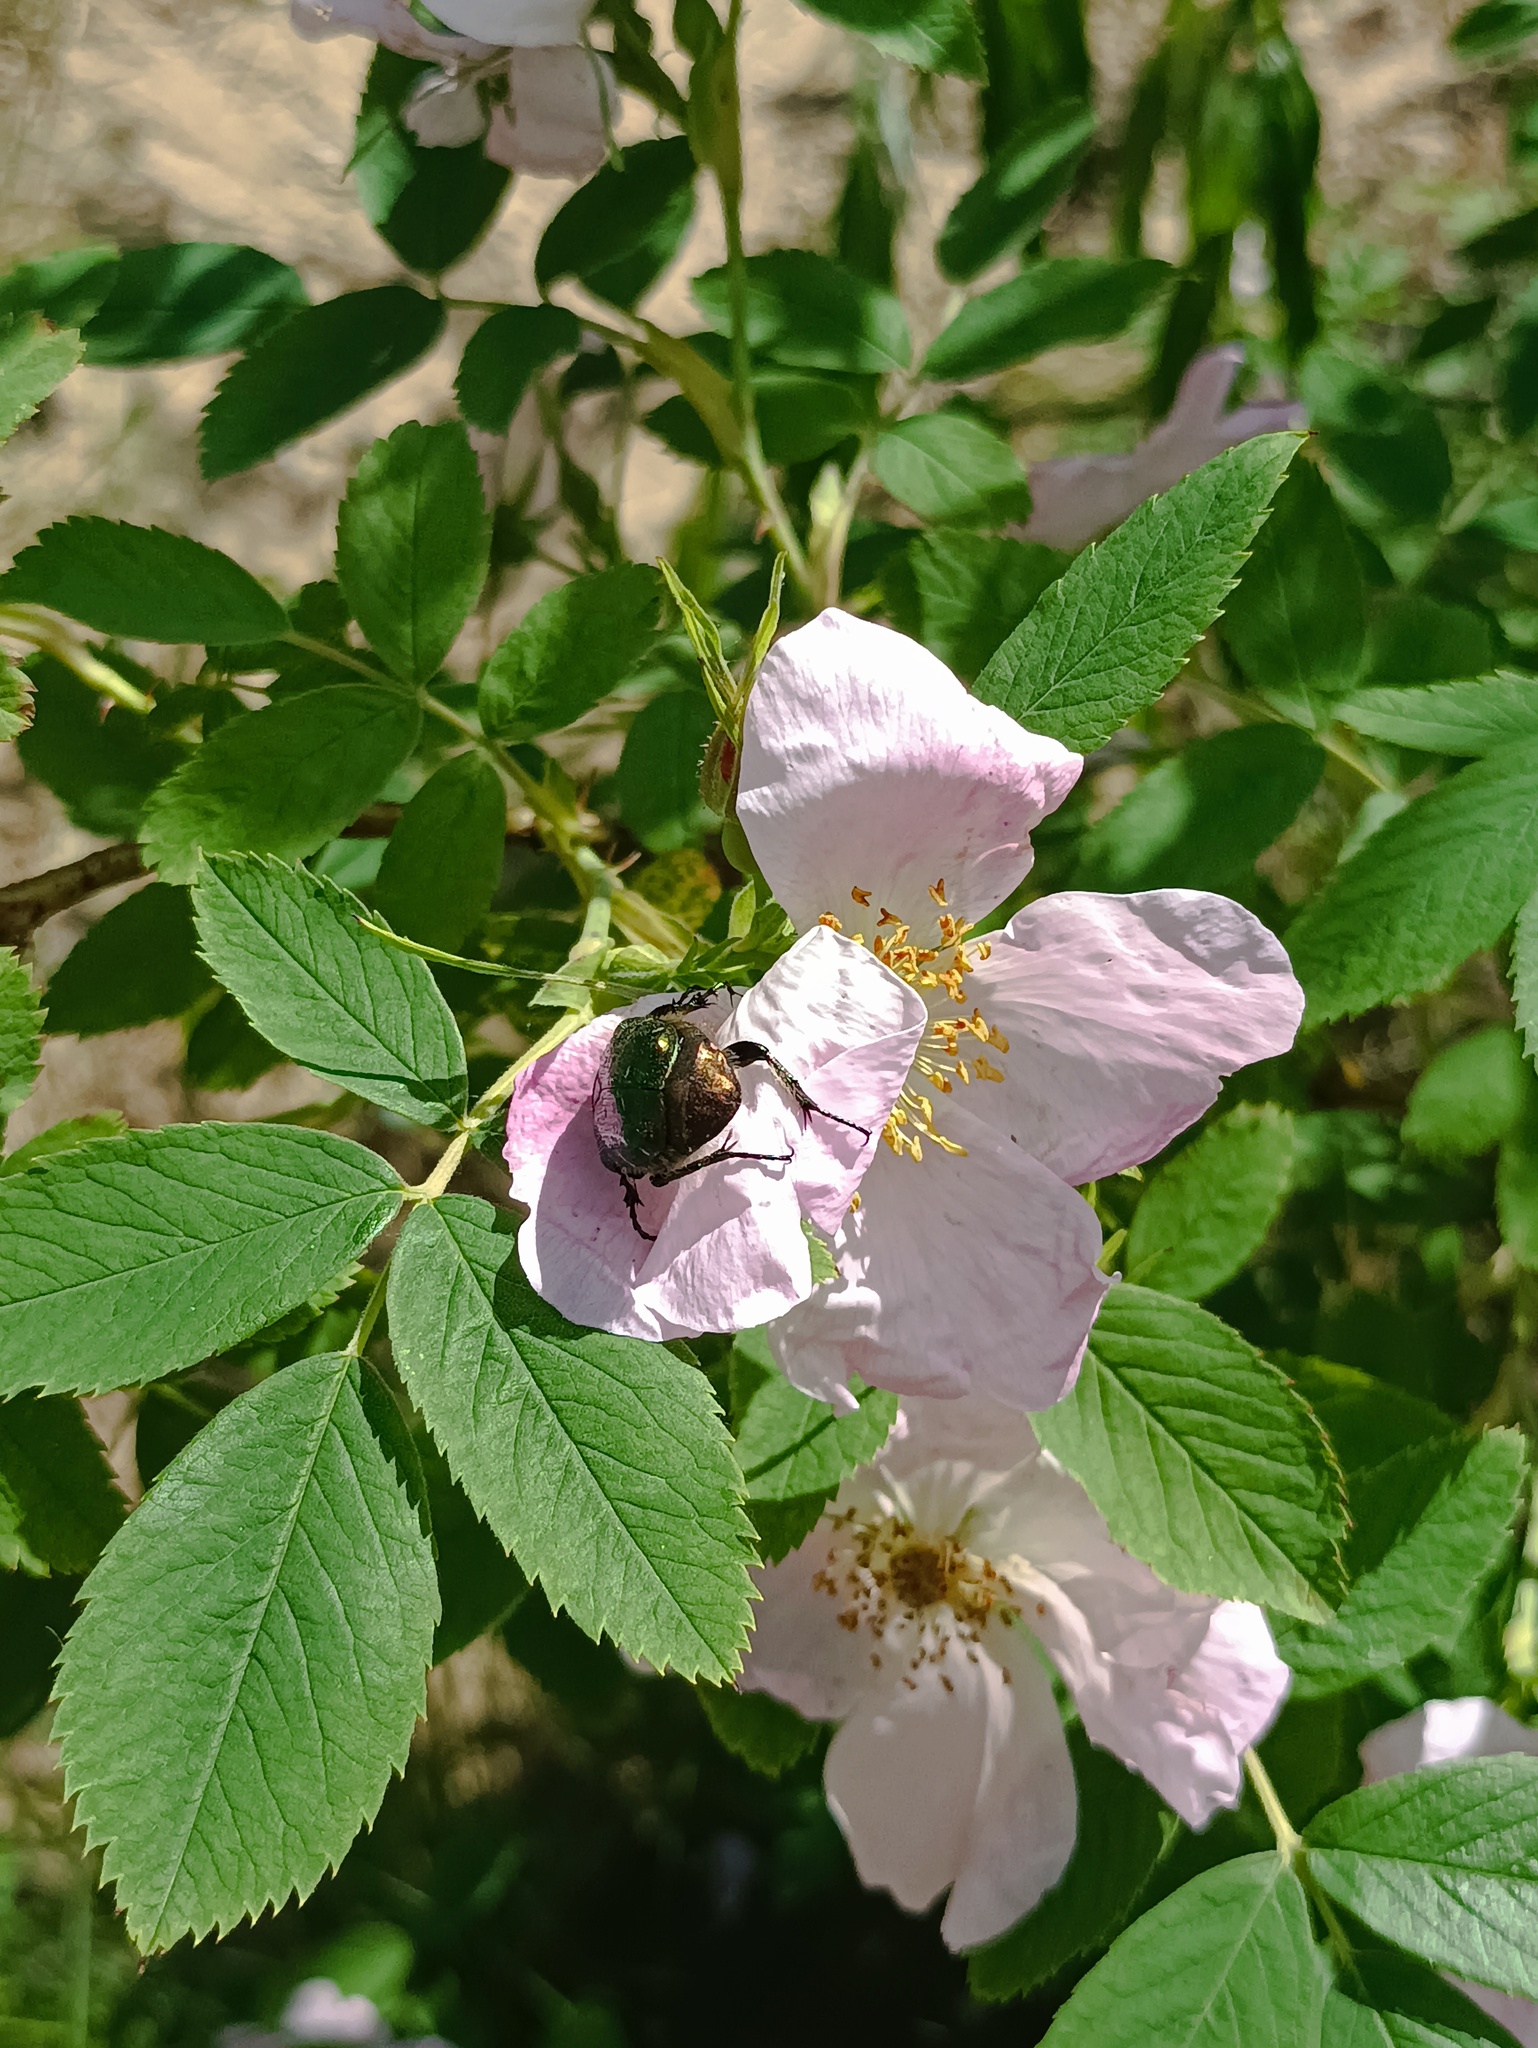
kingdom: Animalia
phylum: Arthropoda
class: Insecta
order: Coleoptera
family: Scarabaeidae
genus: Cetonia
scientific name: Cetonia aurata
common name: Rose chafer
